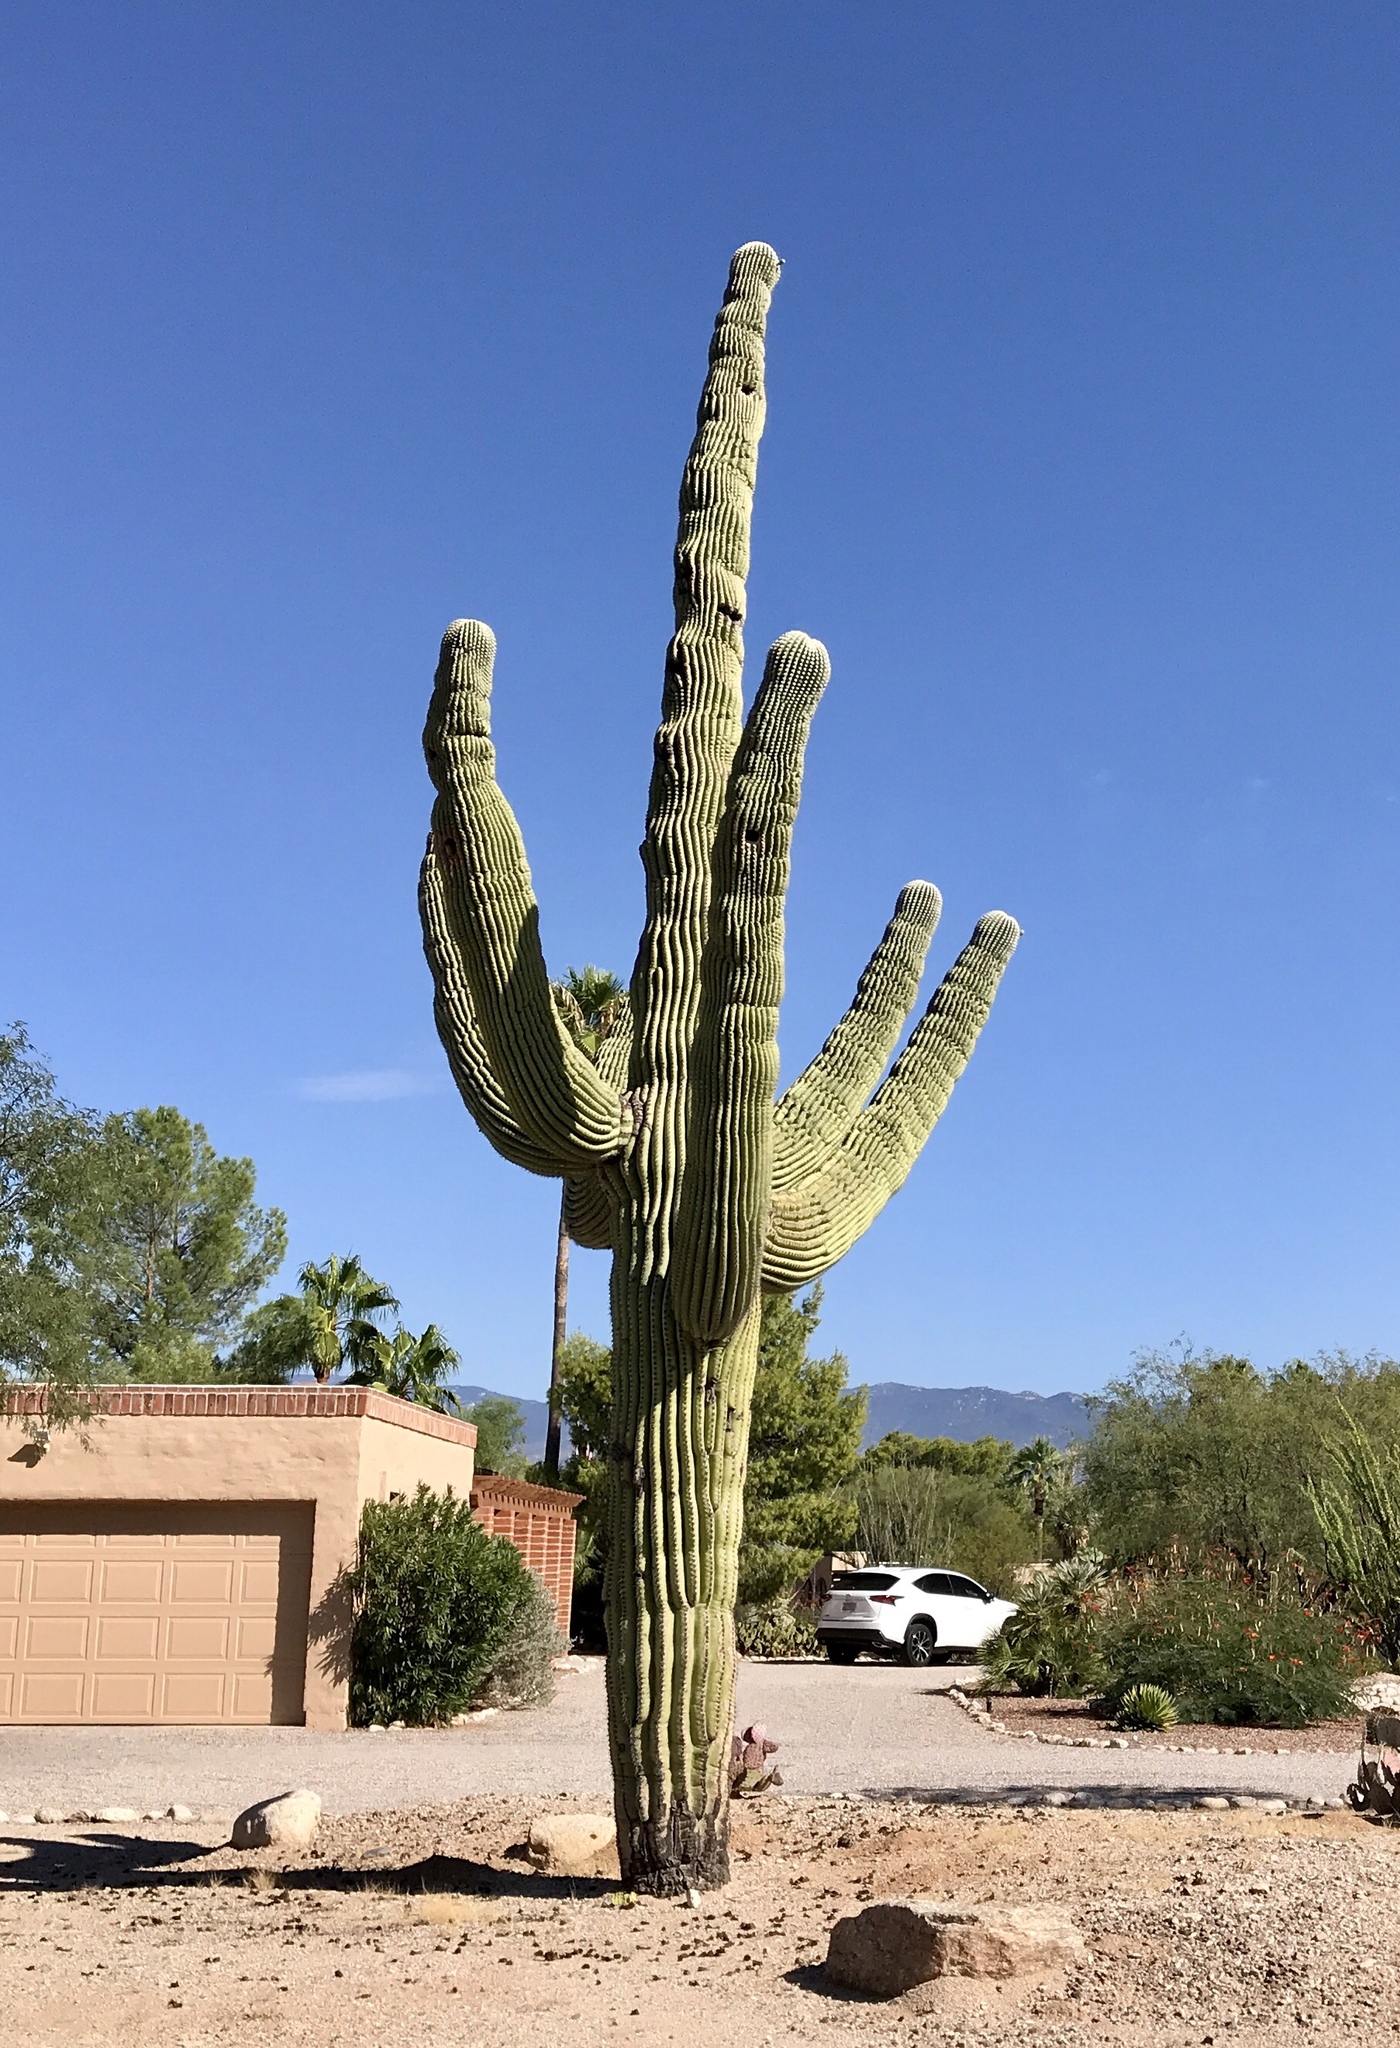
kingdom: Plantae
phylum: Tracheophyta
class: Magnoliopsida
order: Caryophyllales
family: Cactaceae
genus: Carnegiea
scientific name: Carnegiea gigantea
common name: Saguaro
